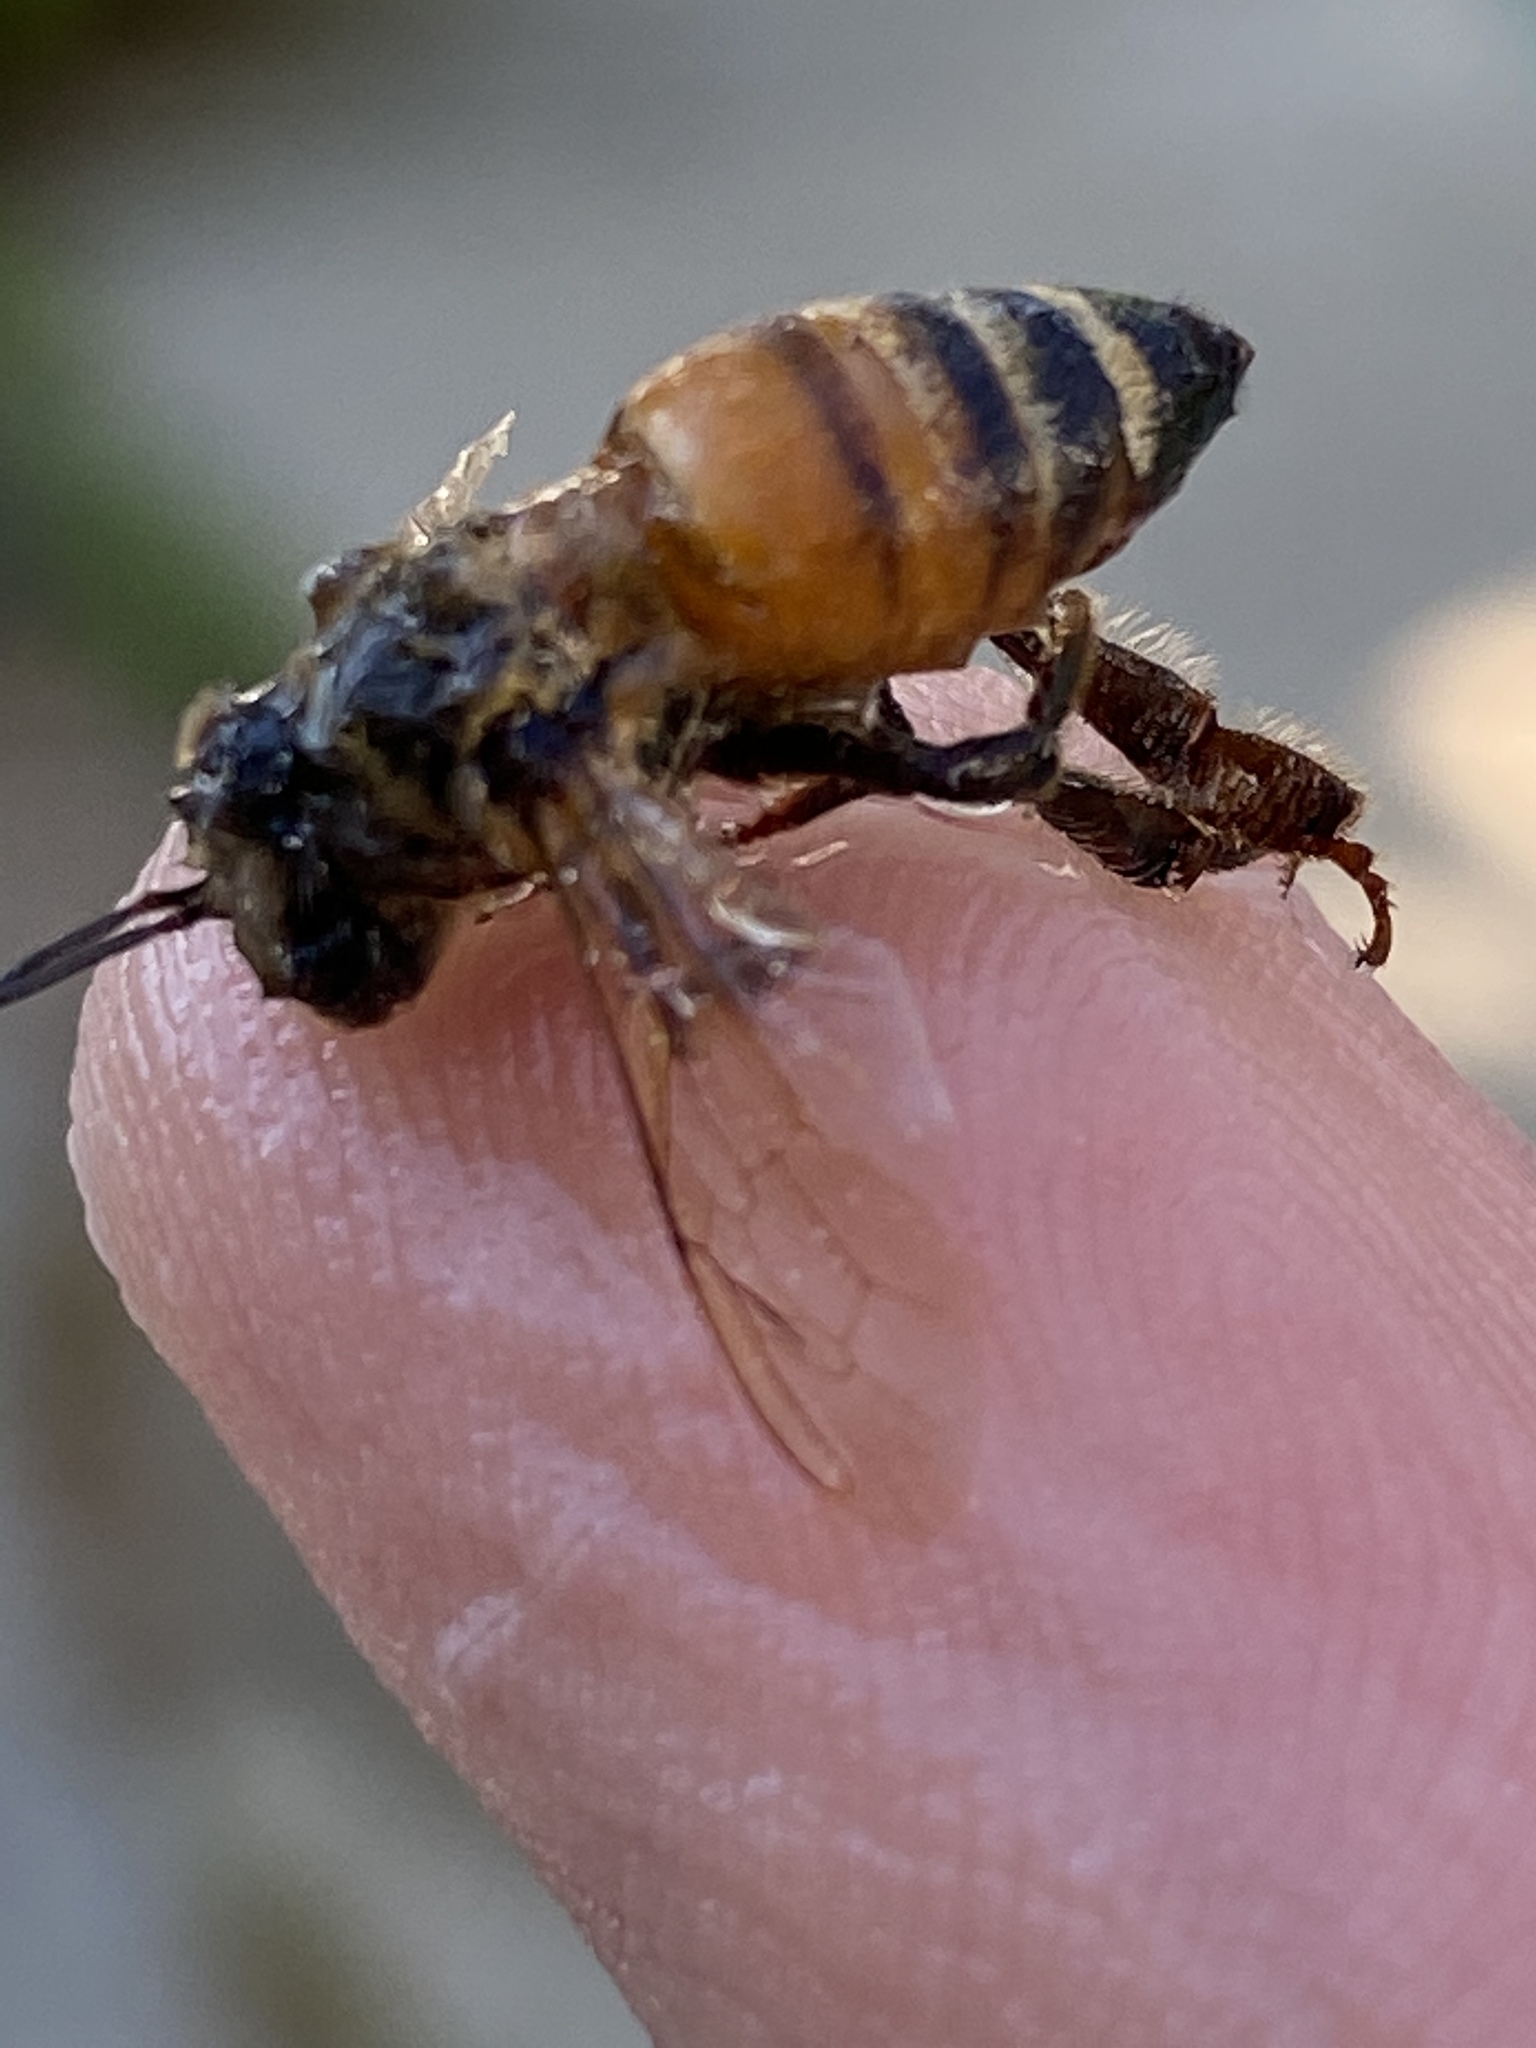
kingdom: Animalia
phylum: Arthropoda
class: Insecta
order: Hymenoptera
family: Apidae
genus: Apis
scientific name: Apis mellifera
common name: Honey bee
